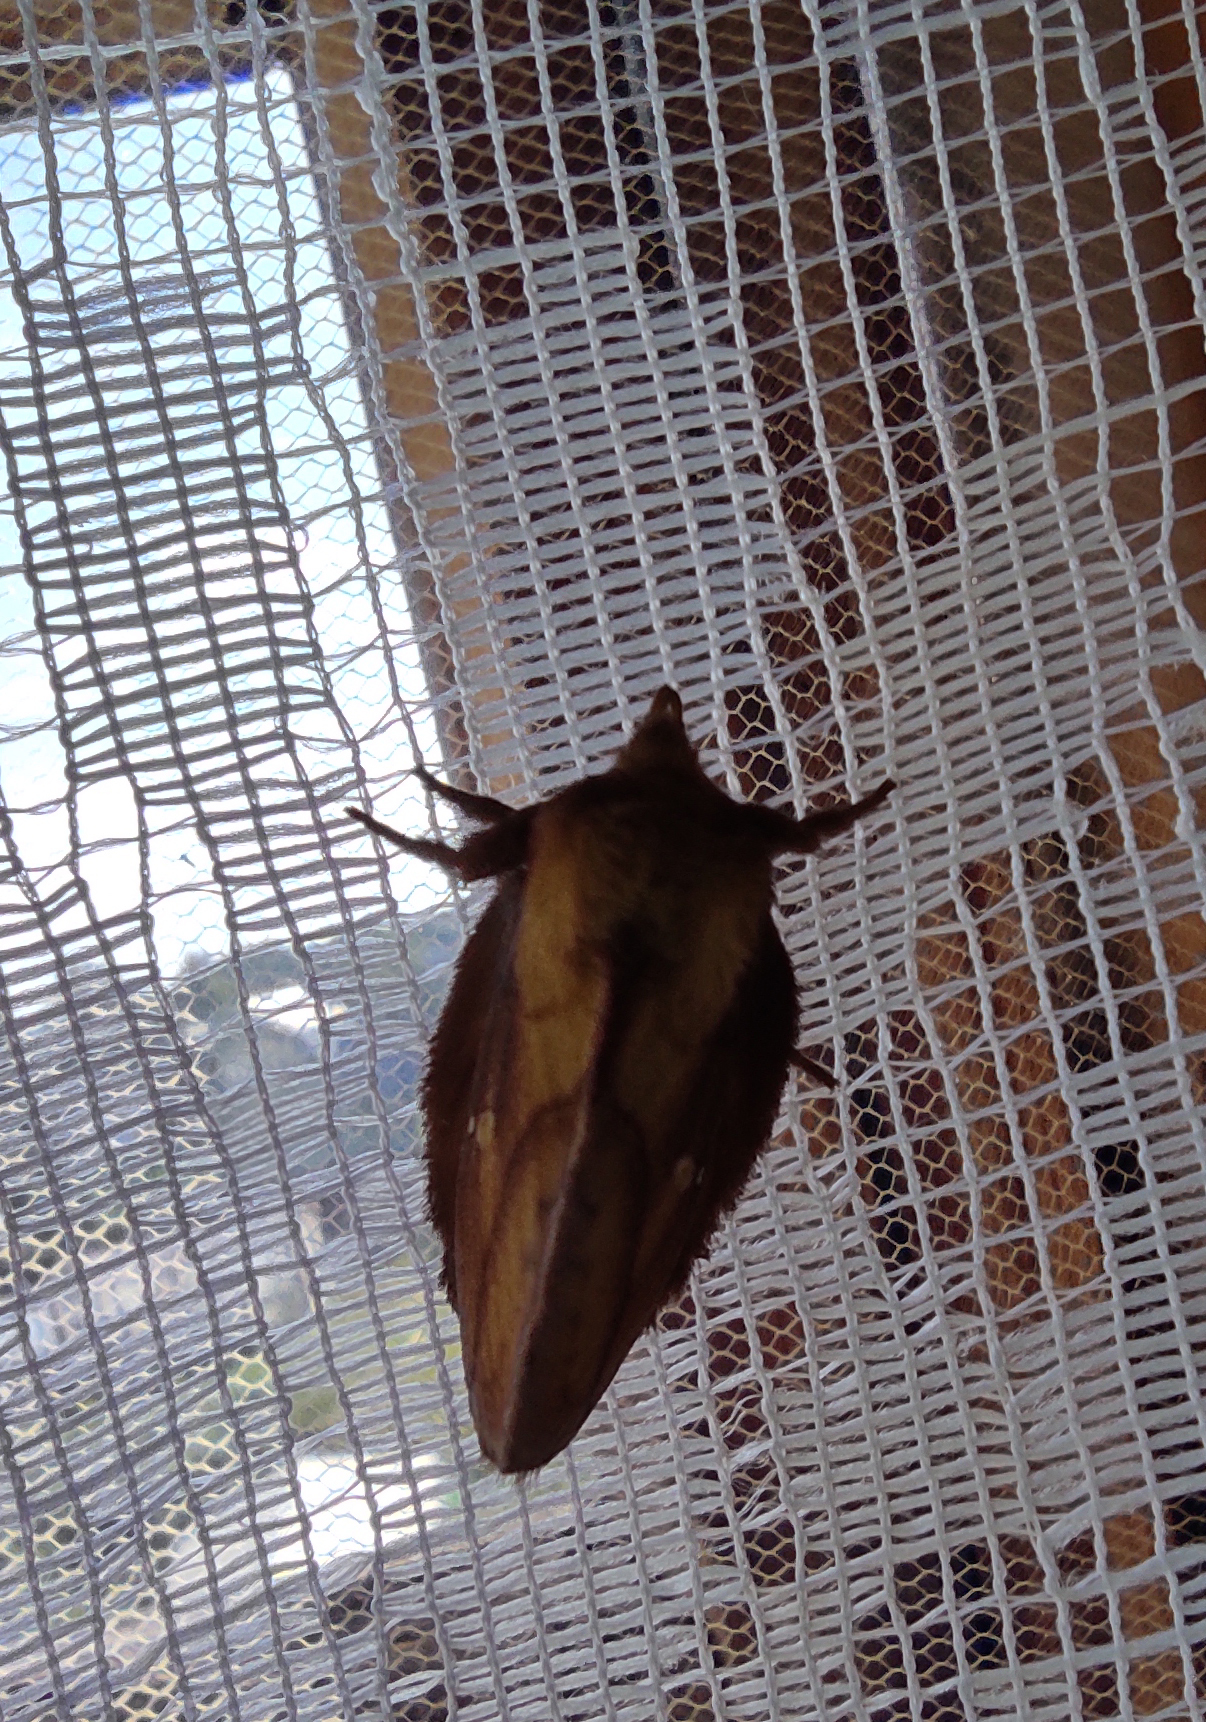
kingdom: Animalia
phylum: Arthropoda
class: Insecta
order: Lepidoptera
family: Lasiocampidae
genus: Euthrix
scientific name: Euthrix potatoria
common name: Drinker
